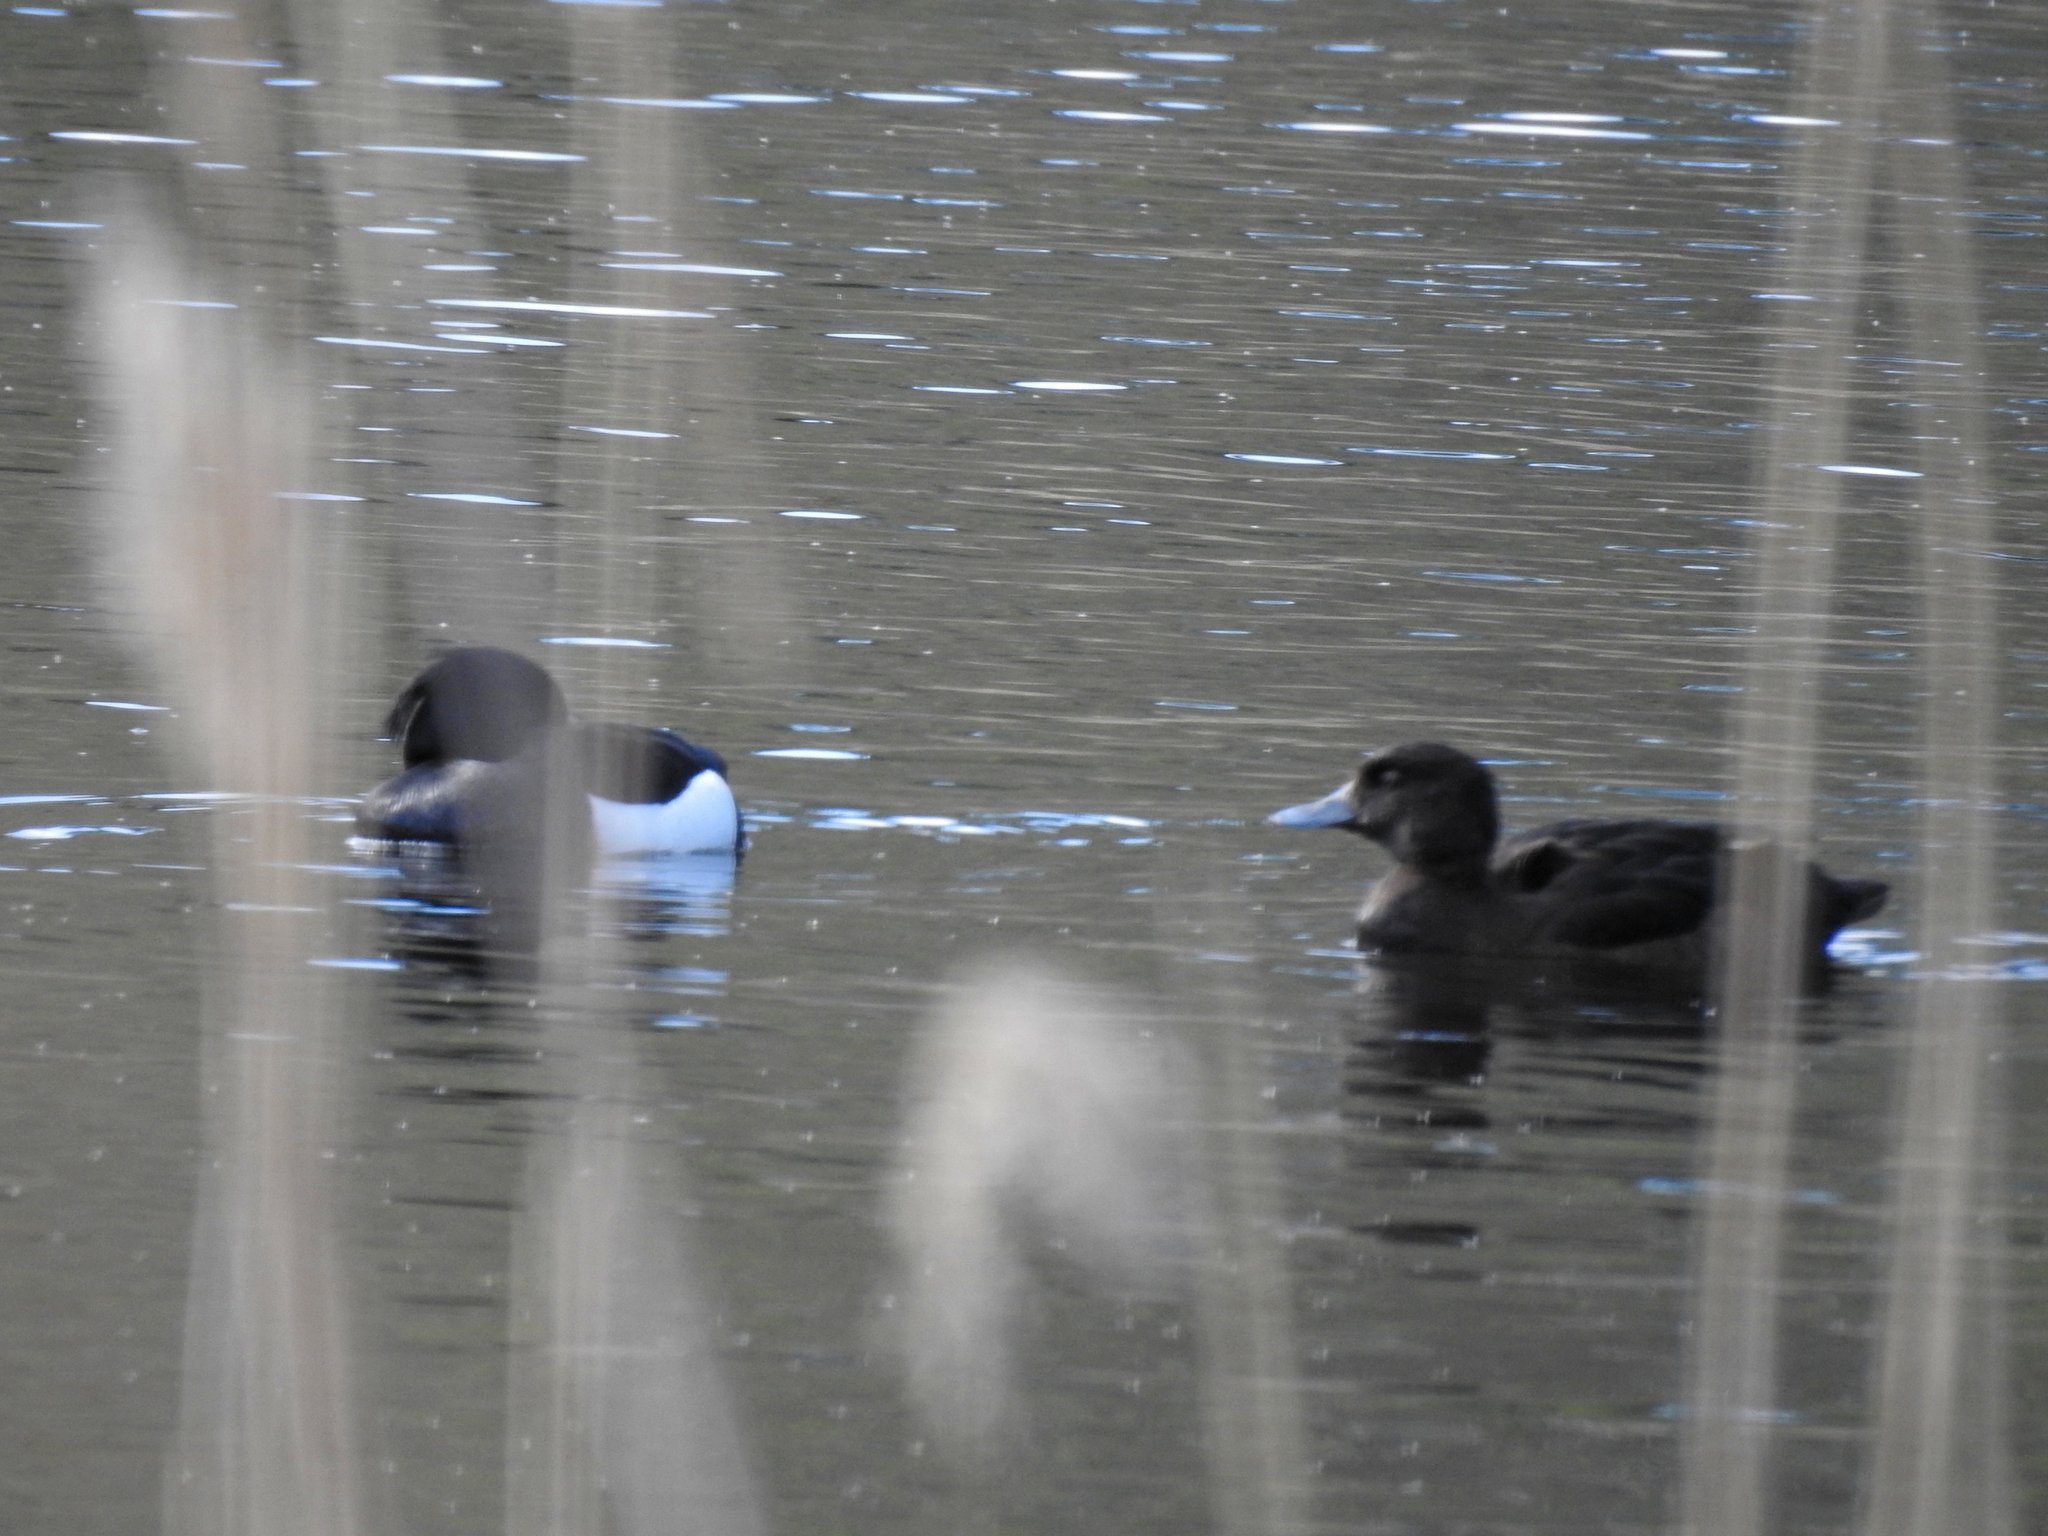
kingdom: Animalia
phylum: Chordata
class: Aves
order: Anseriformes
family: Anatidae
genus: Aythya
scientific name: Aythya fuligula
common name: Tufted duck
